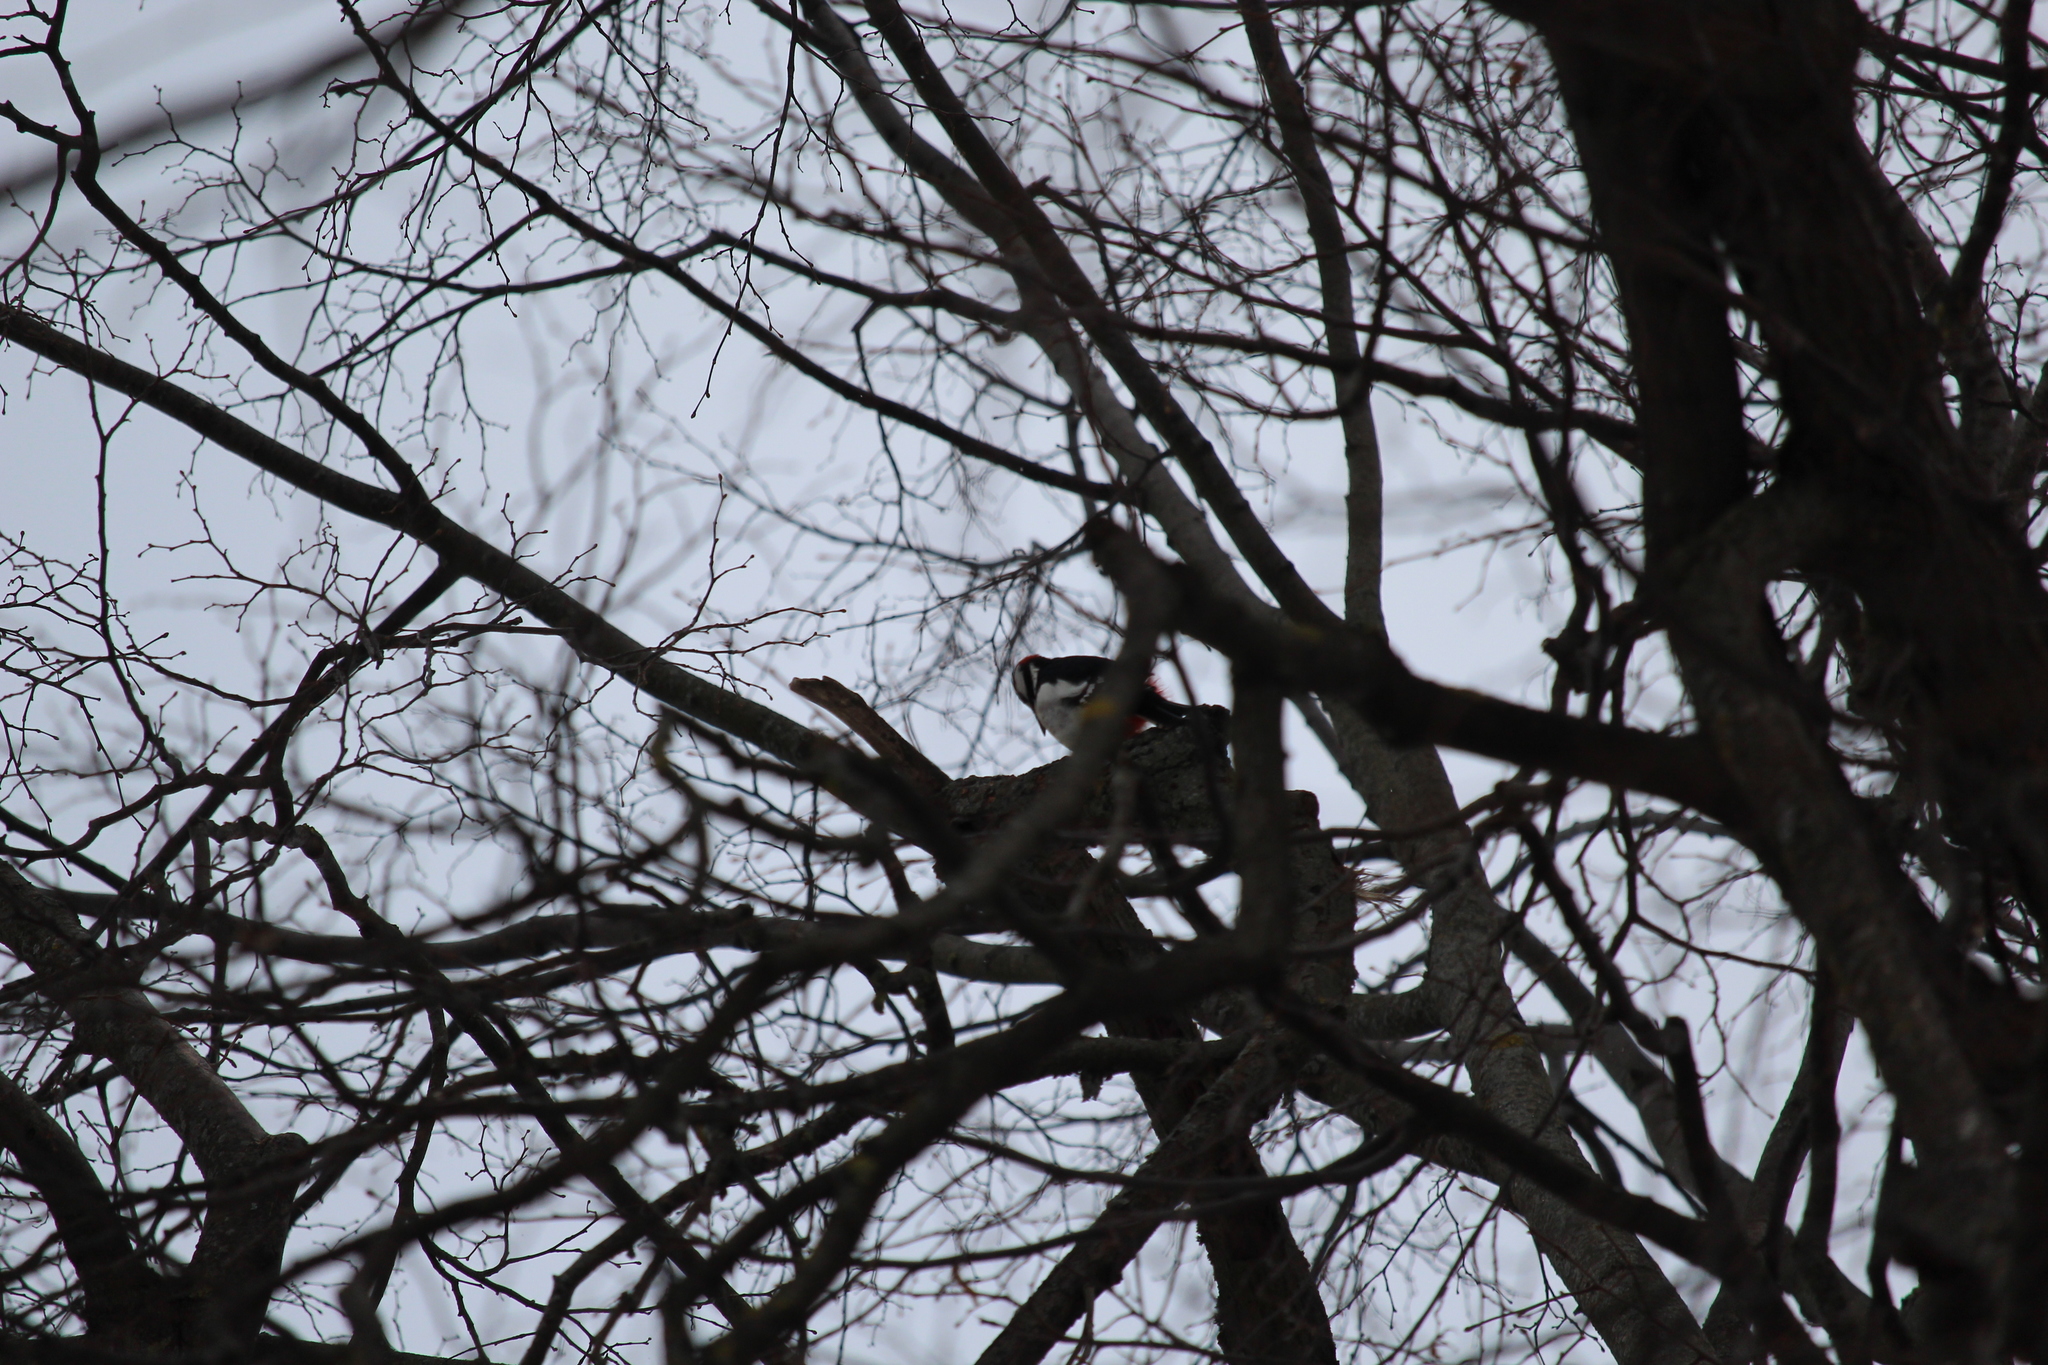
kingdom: Animalia
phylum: Chordata
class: Aves
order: Piciformes
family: Picidae
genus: Dendrocopos
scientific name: Dendrocopos major
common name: Great spotted woodpecker
